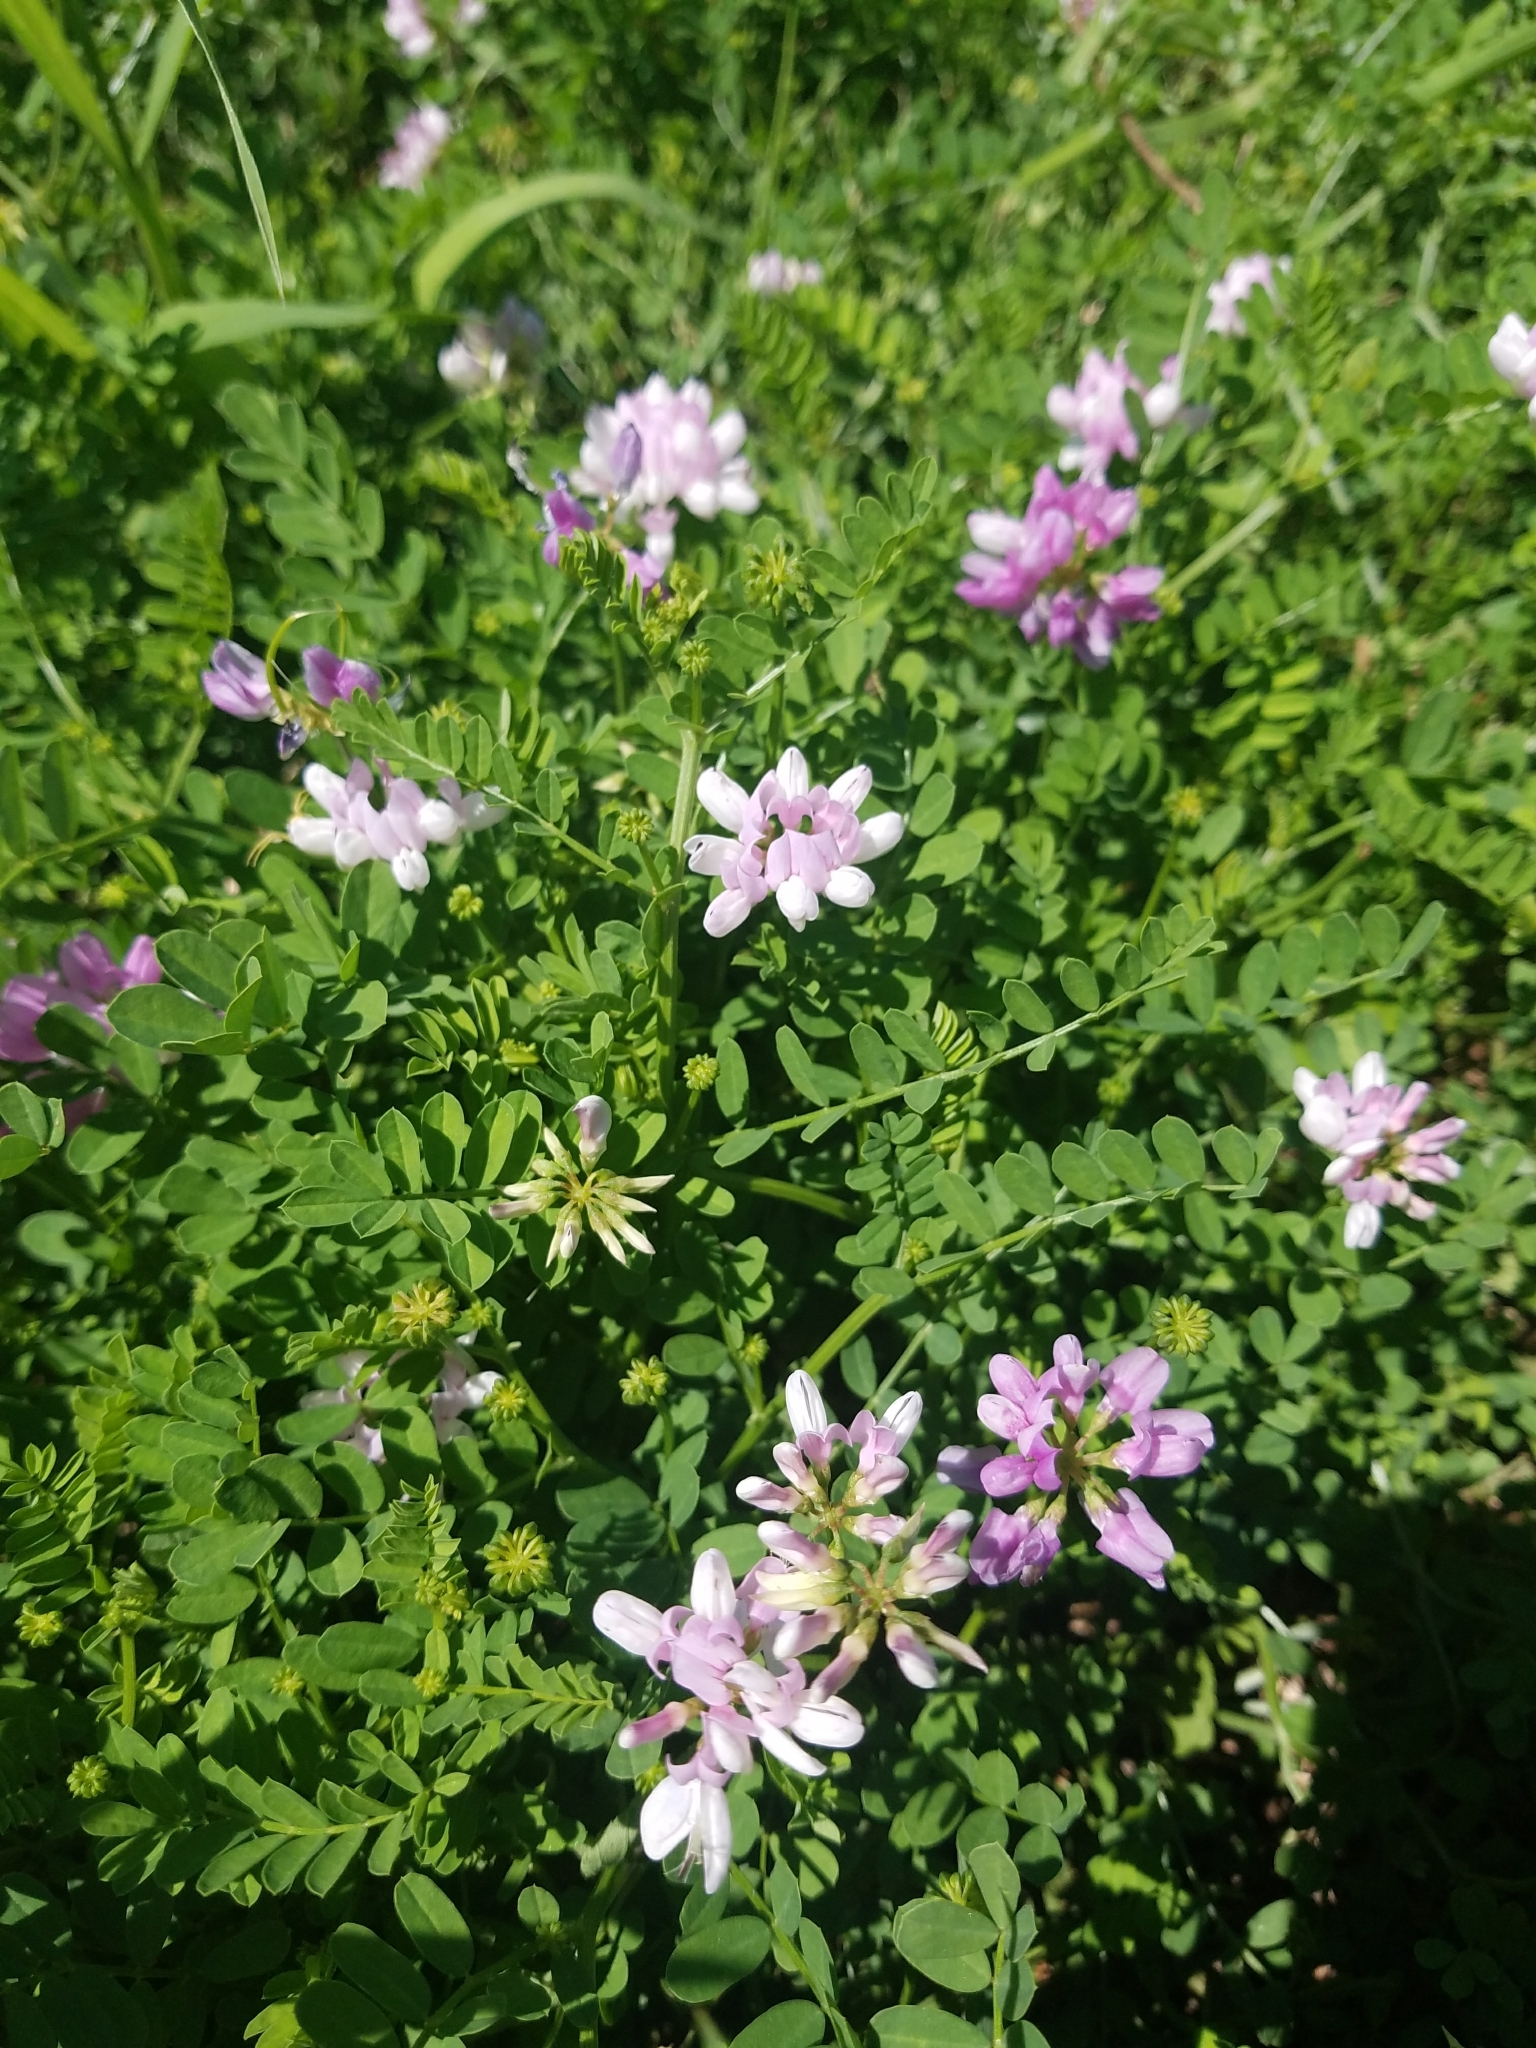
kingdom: Plantae
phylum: Tracheophyta
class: Magnoliopsida
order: Fabales
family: Fabaceae
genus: Coronilla
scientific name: Coronilla varia
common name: Crownvetch
